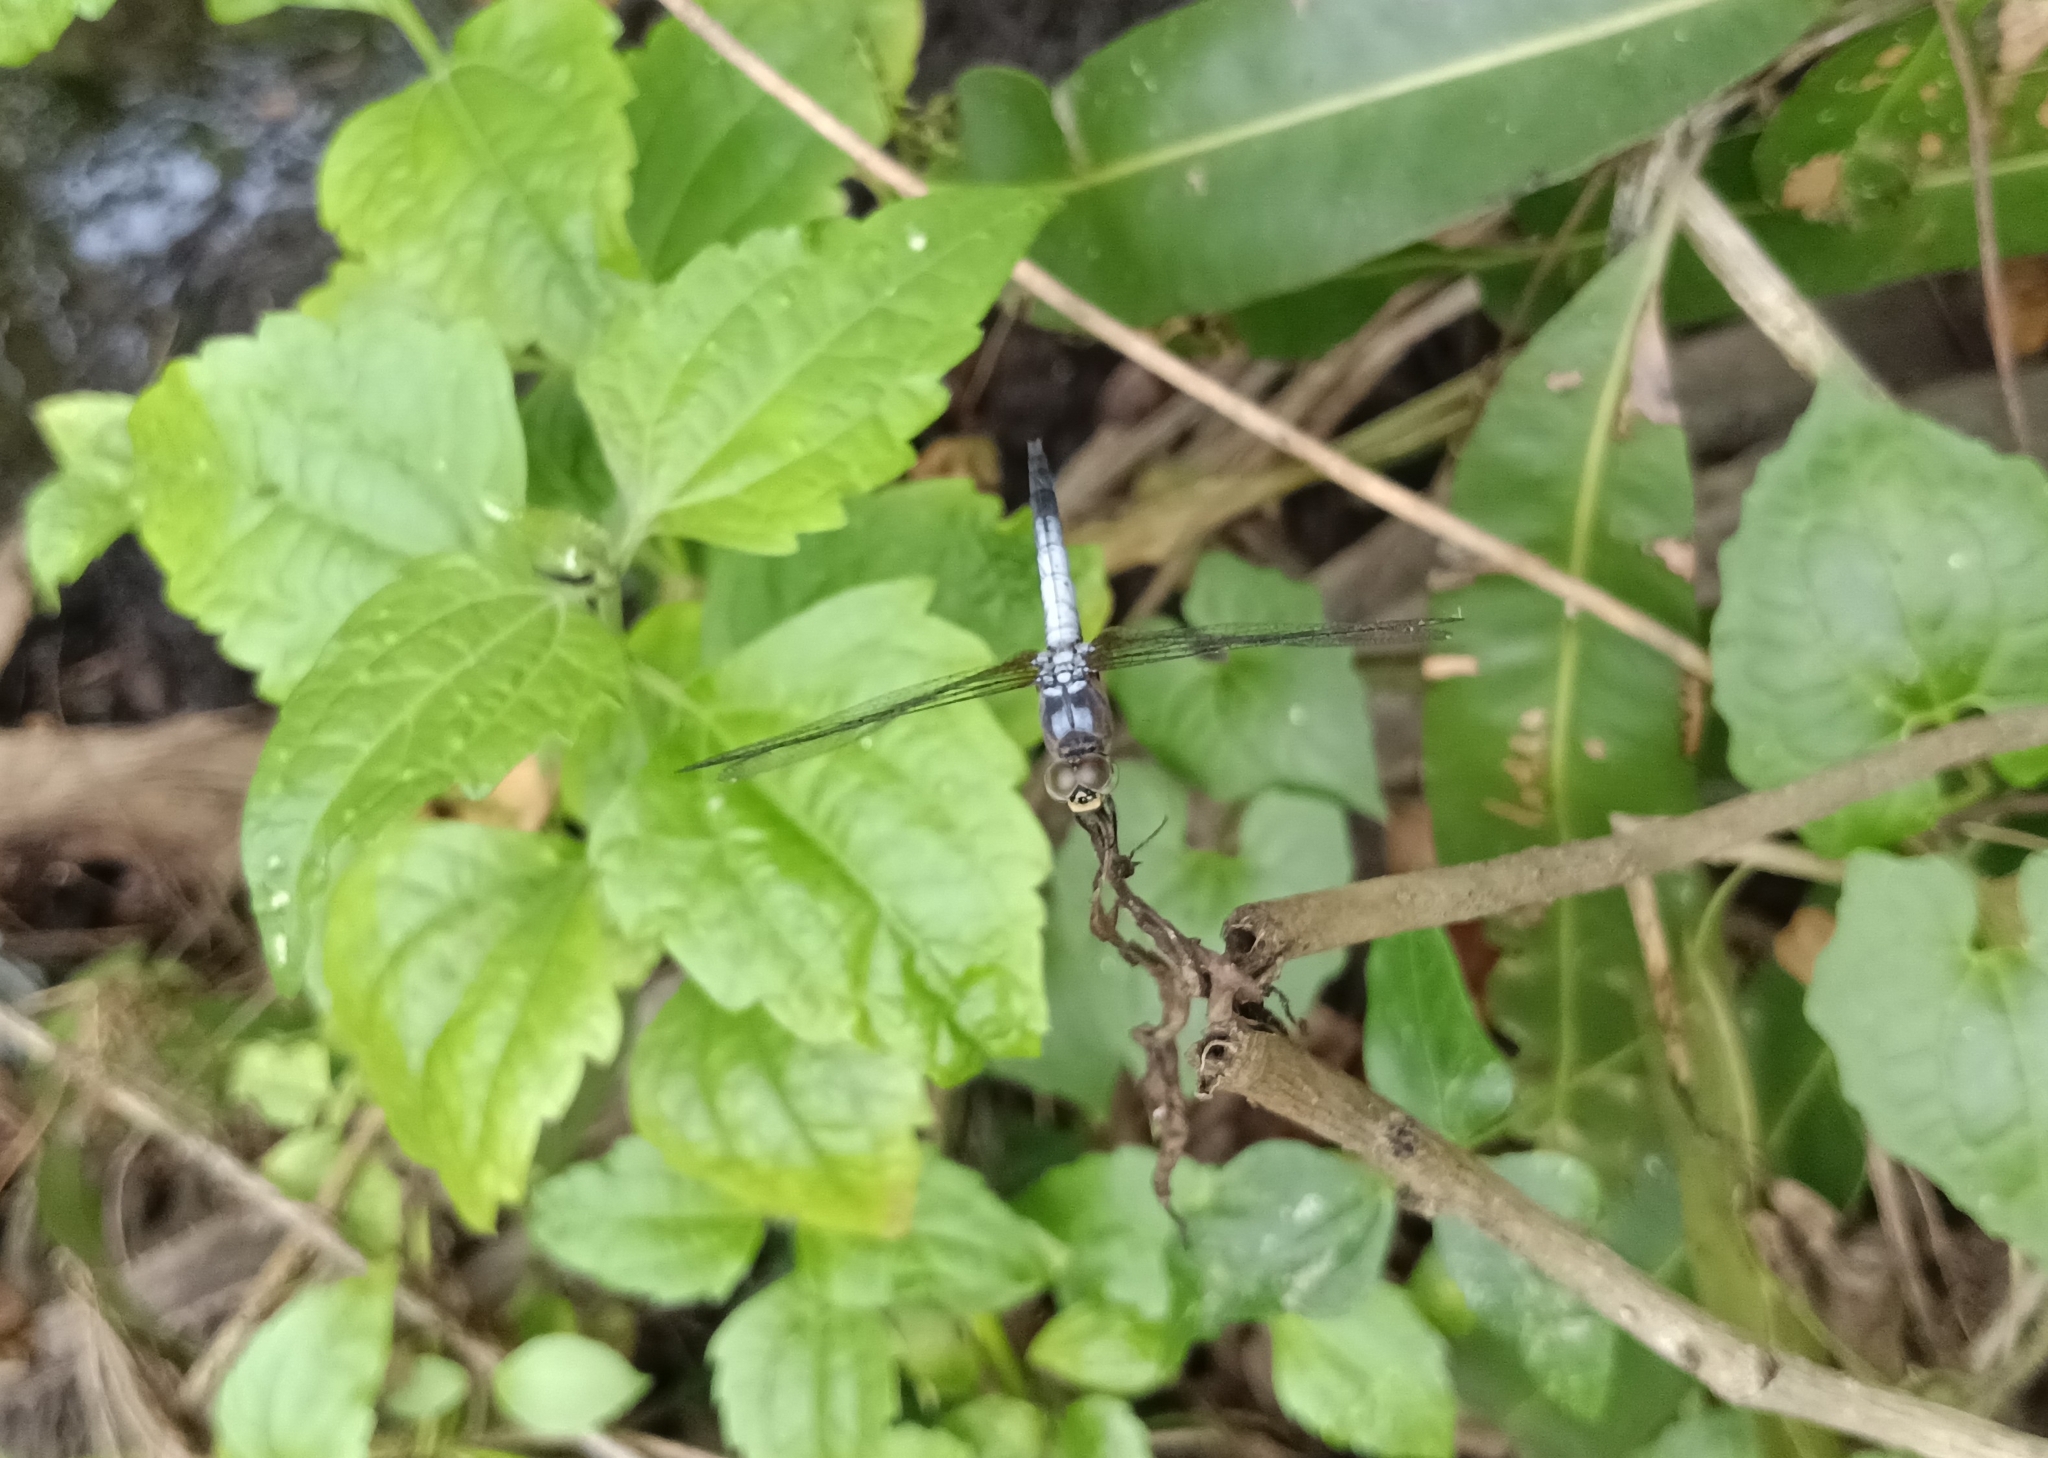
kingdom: Animalia
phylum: Arthropoda
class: Insecta
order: Odonata
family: Libellulidae
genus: Brachydiplax
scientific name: Brachydiplax chalybea
